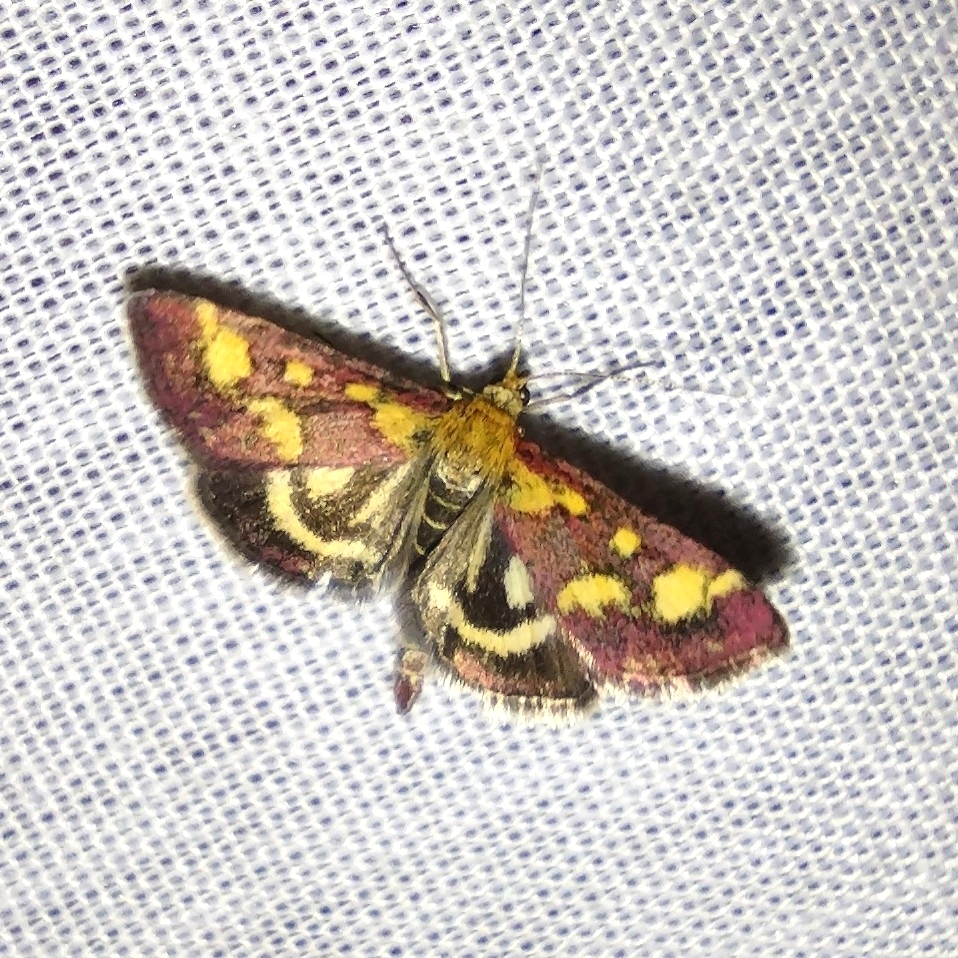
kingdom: Animalia
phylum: Arthropoda
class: Insecta
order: Lepidoptera
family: Crambidae
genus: Pyrausta
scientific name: Pyrausta purpuralis
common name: Common purple & gold
